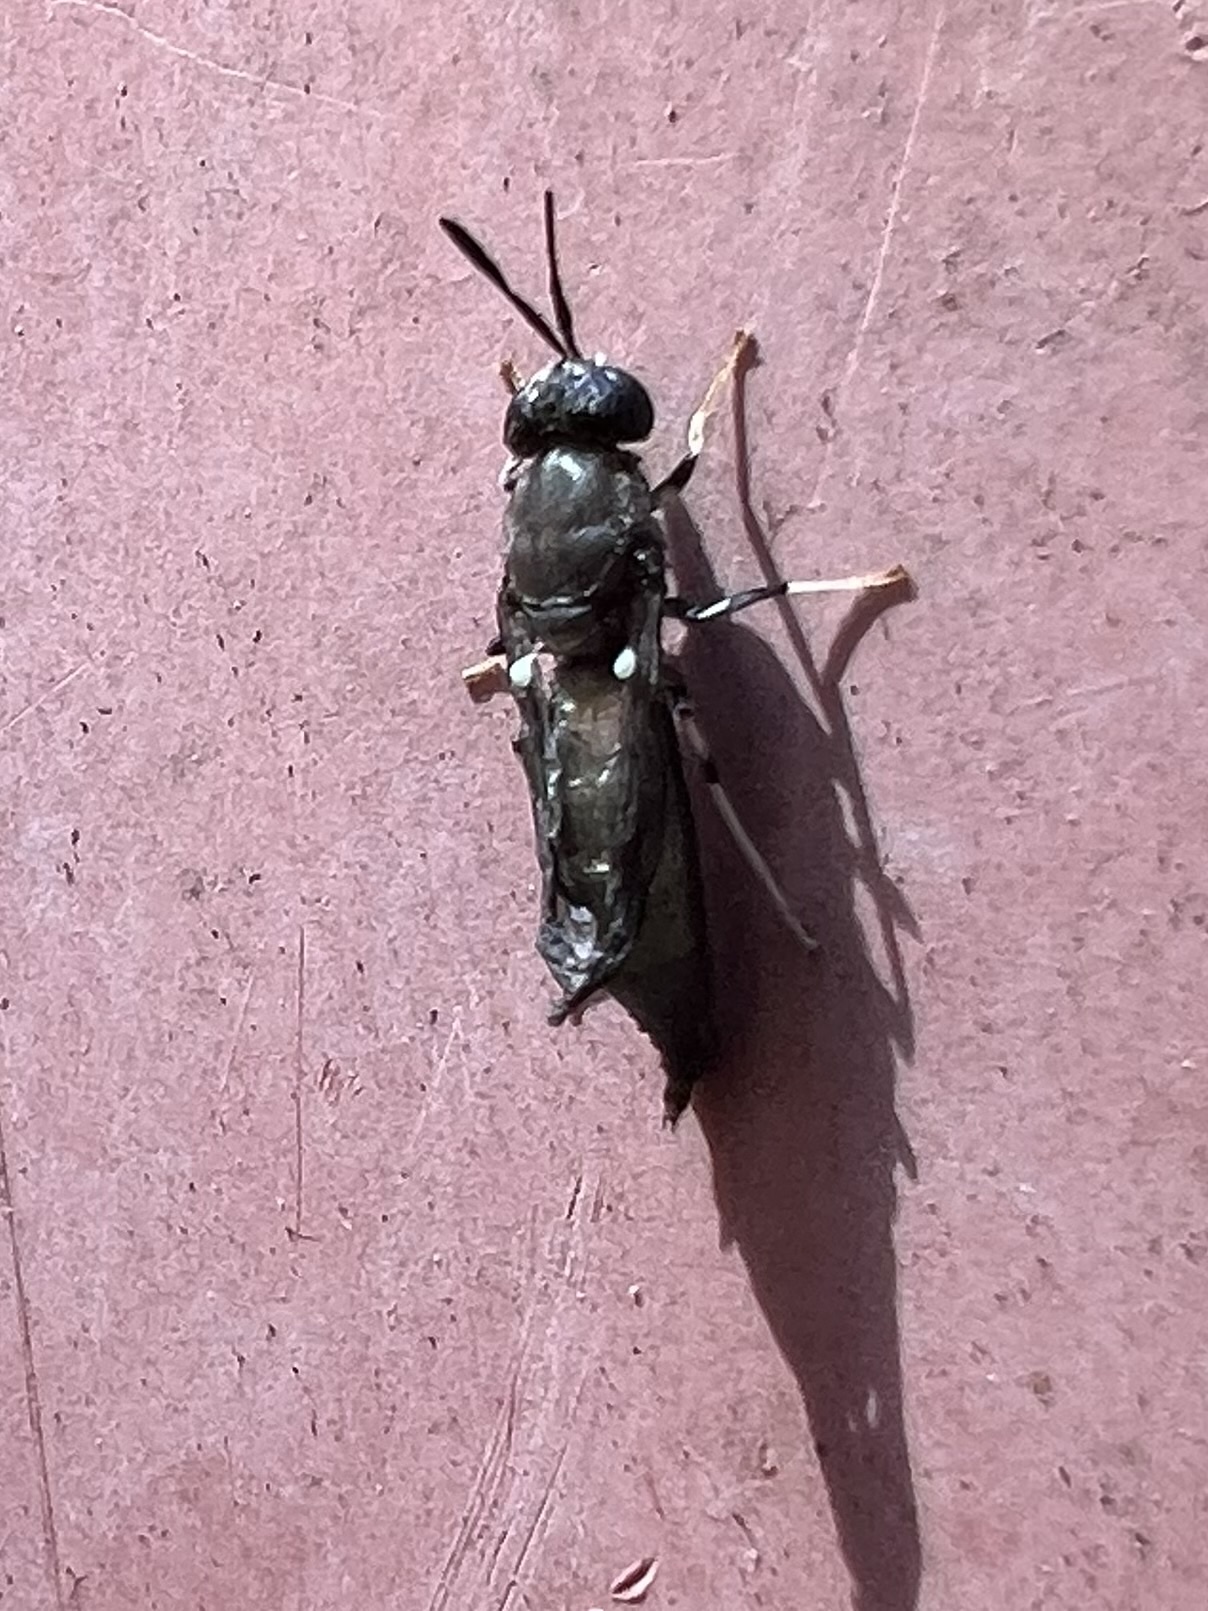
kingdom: Animalia
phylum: Arthropoda
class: Insecta
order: Diptera
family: Stratiomyidae
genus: Hermetia
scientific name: Hermetia illucens
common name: Black soldier fly
